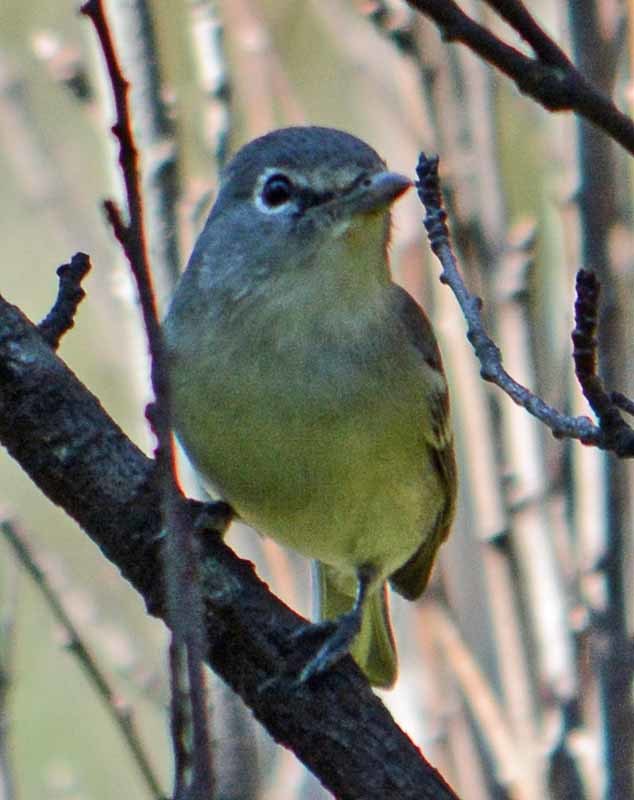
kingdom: Animalia
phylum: Chordata
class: Aves
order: Passeriformes
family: Vireonidae
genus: Vireo
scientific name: Vireo cassinii
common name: Cassin's vireo
